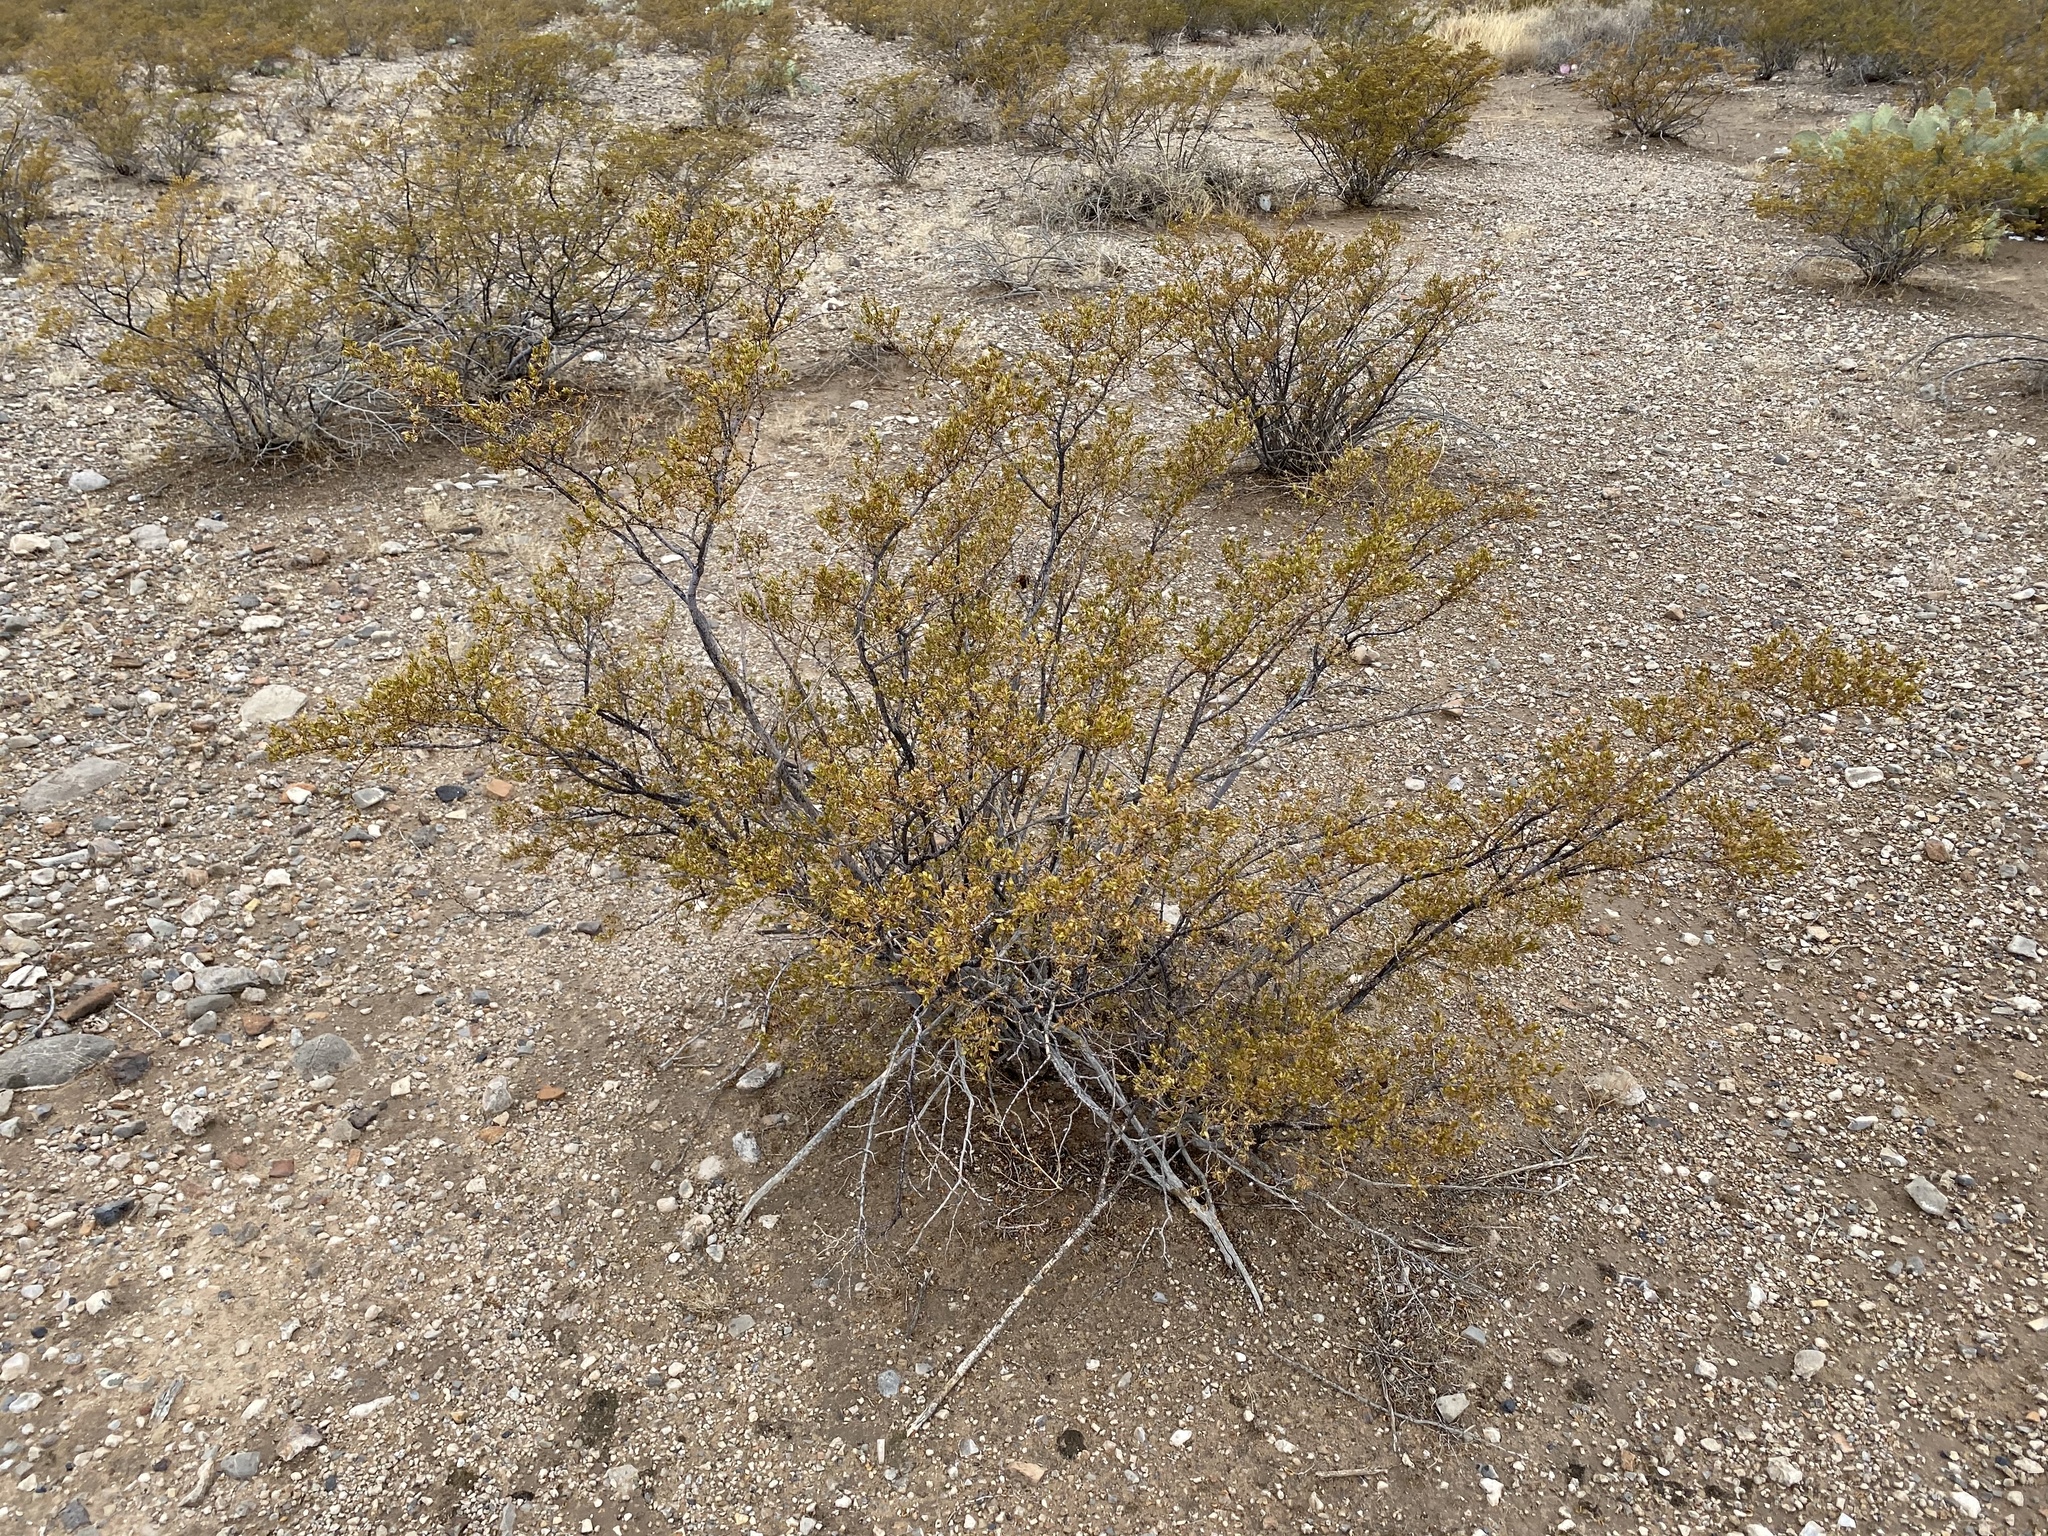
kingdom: Plantae
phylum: Tracheophyta
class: Magnoliopsida
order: Zygophyllales
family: Zygophyllaceae
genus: Larrea
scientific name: Larrea tridentata
